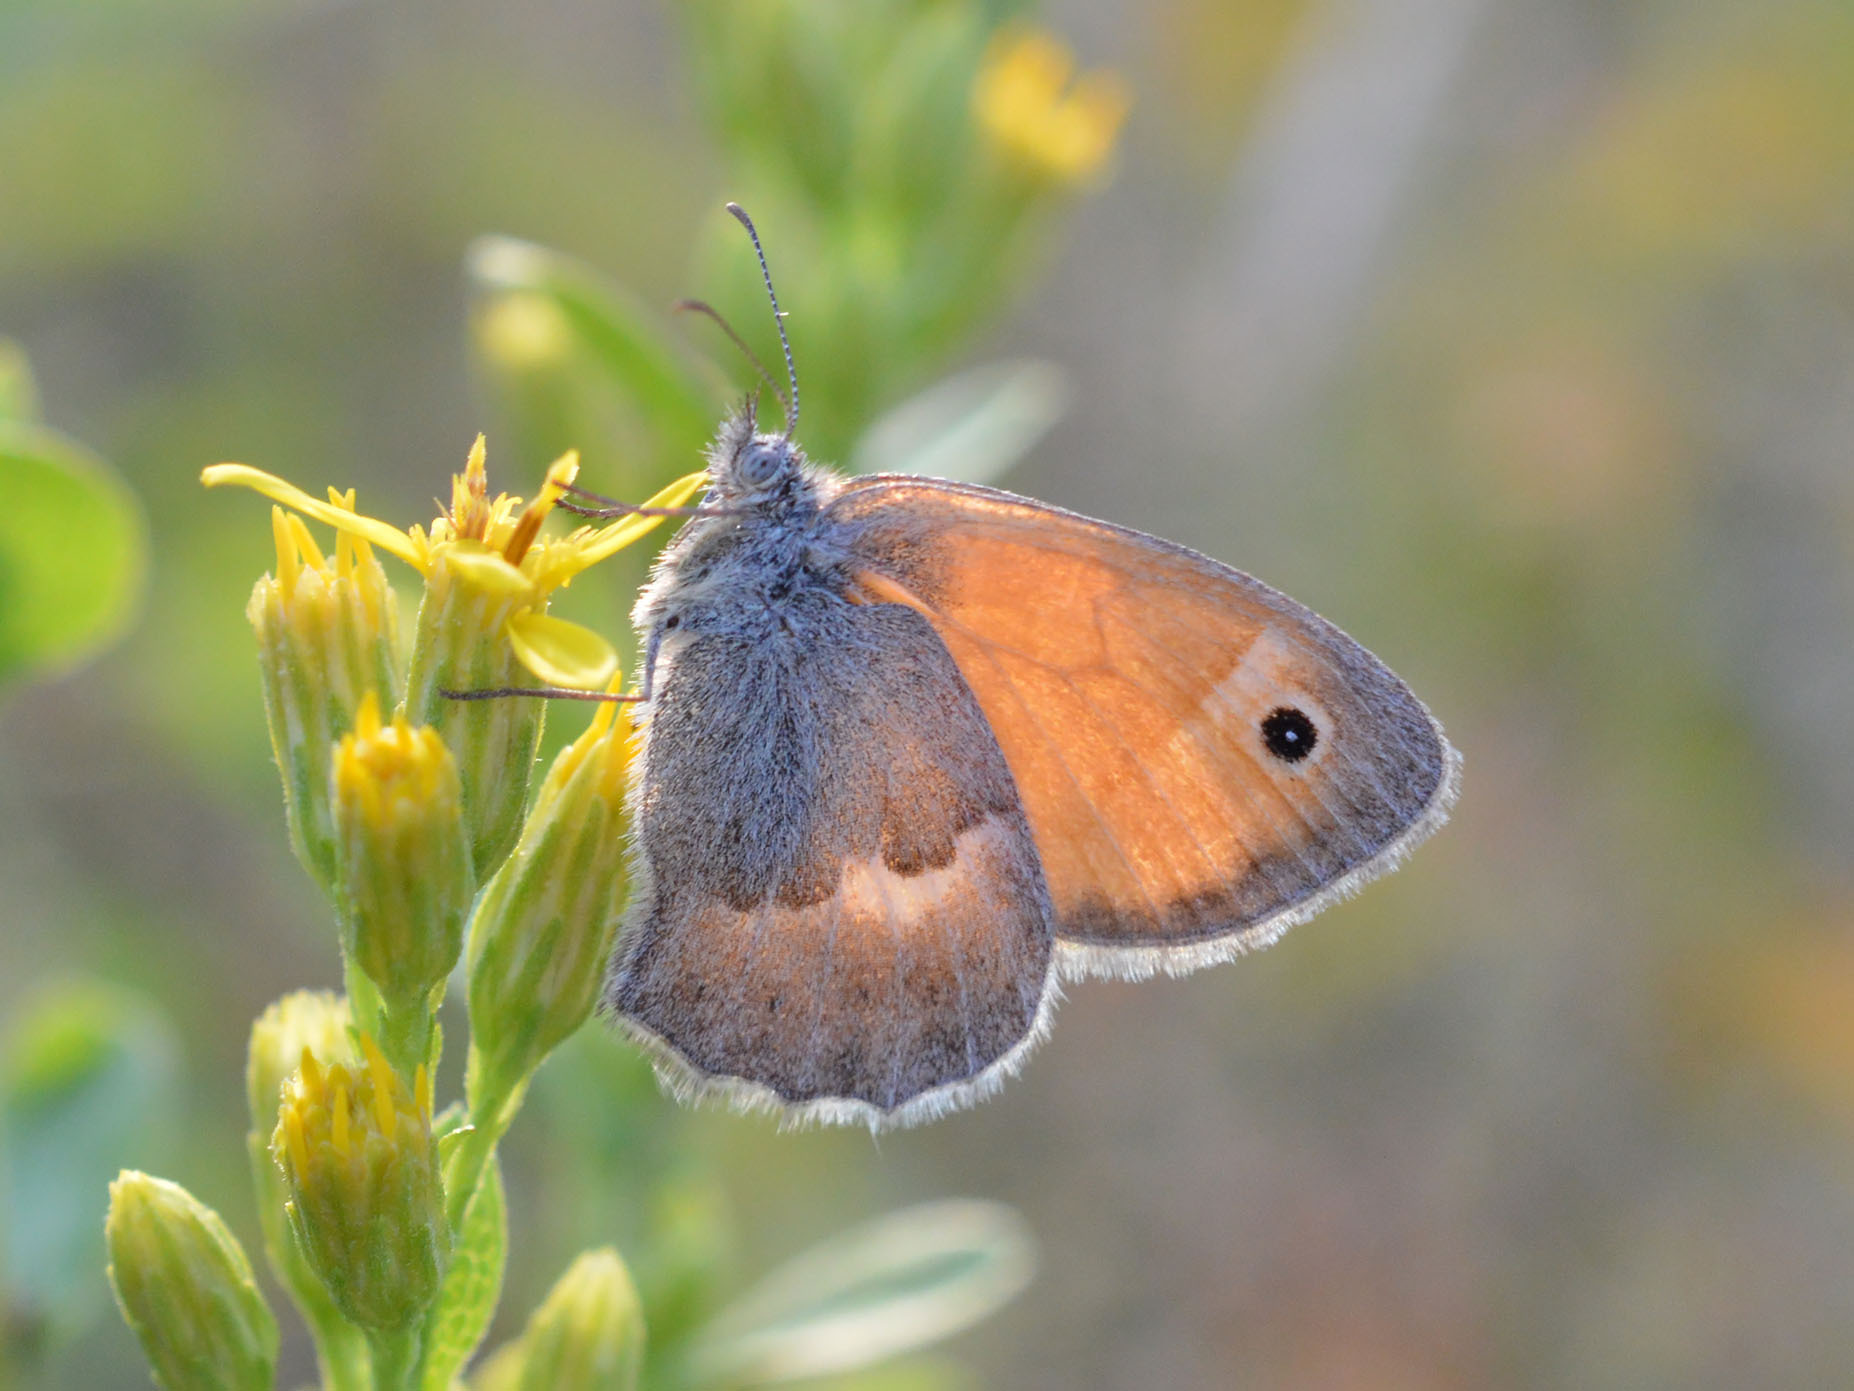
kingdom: Animalia
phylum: Arthropoda
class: Insecta
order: Lepidoptera
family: Nymphalidae
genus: Coenonympha
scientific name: Coenonympha pamphilus
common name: Small heath
